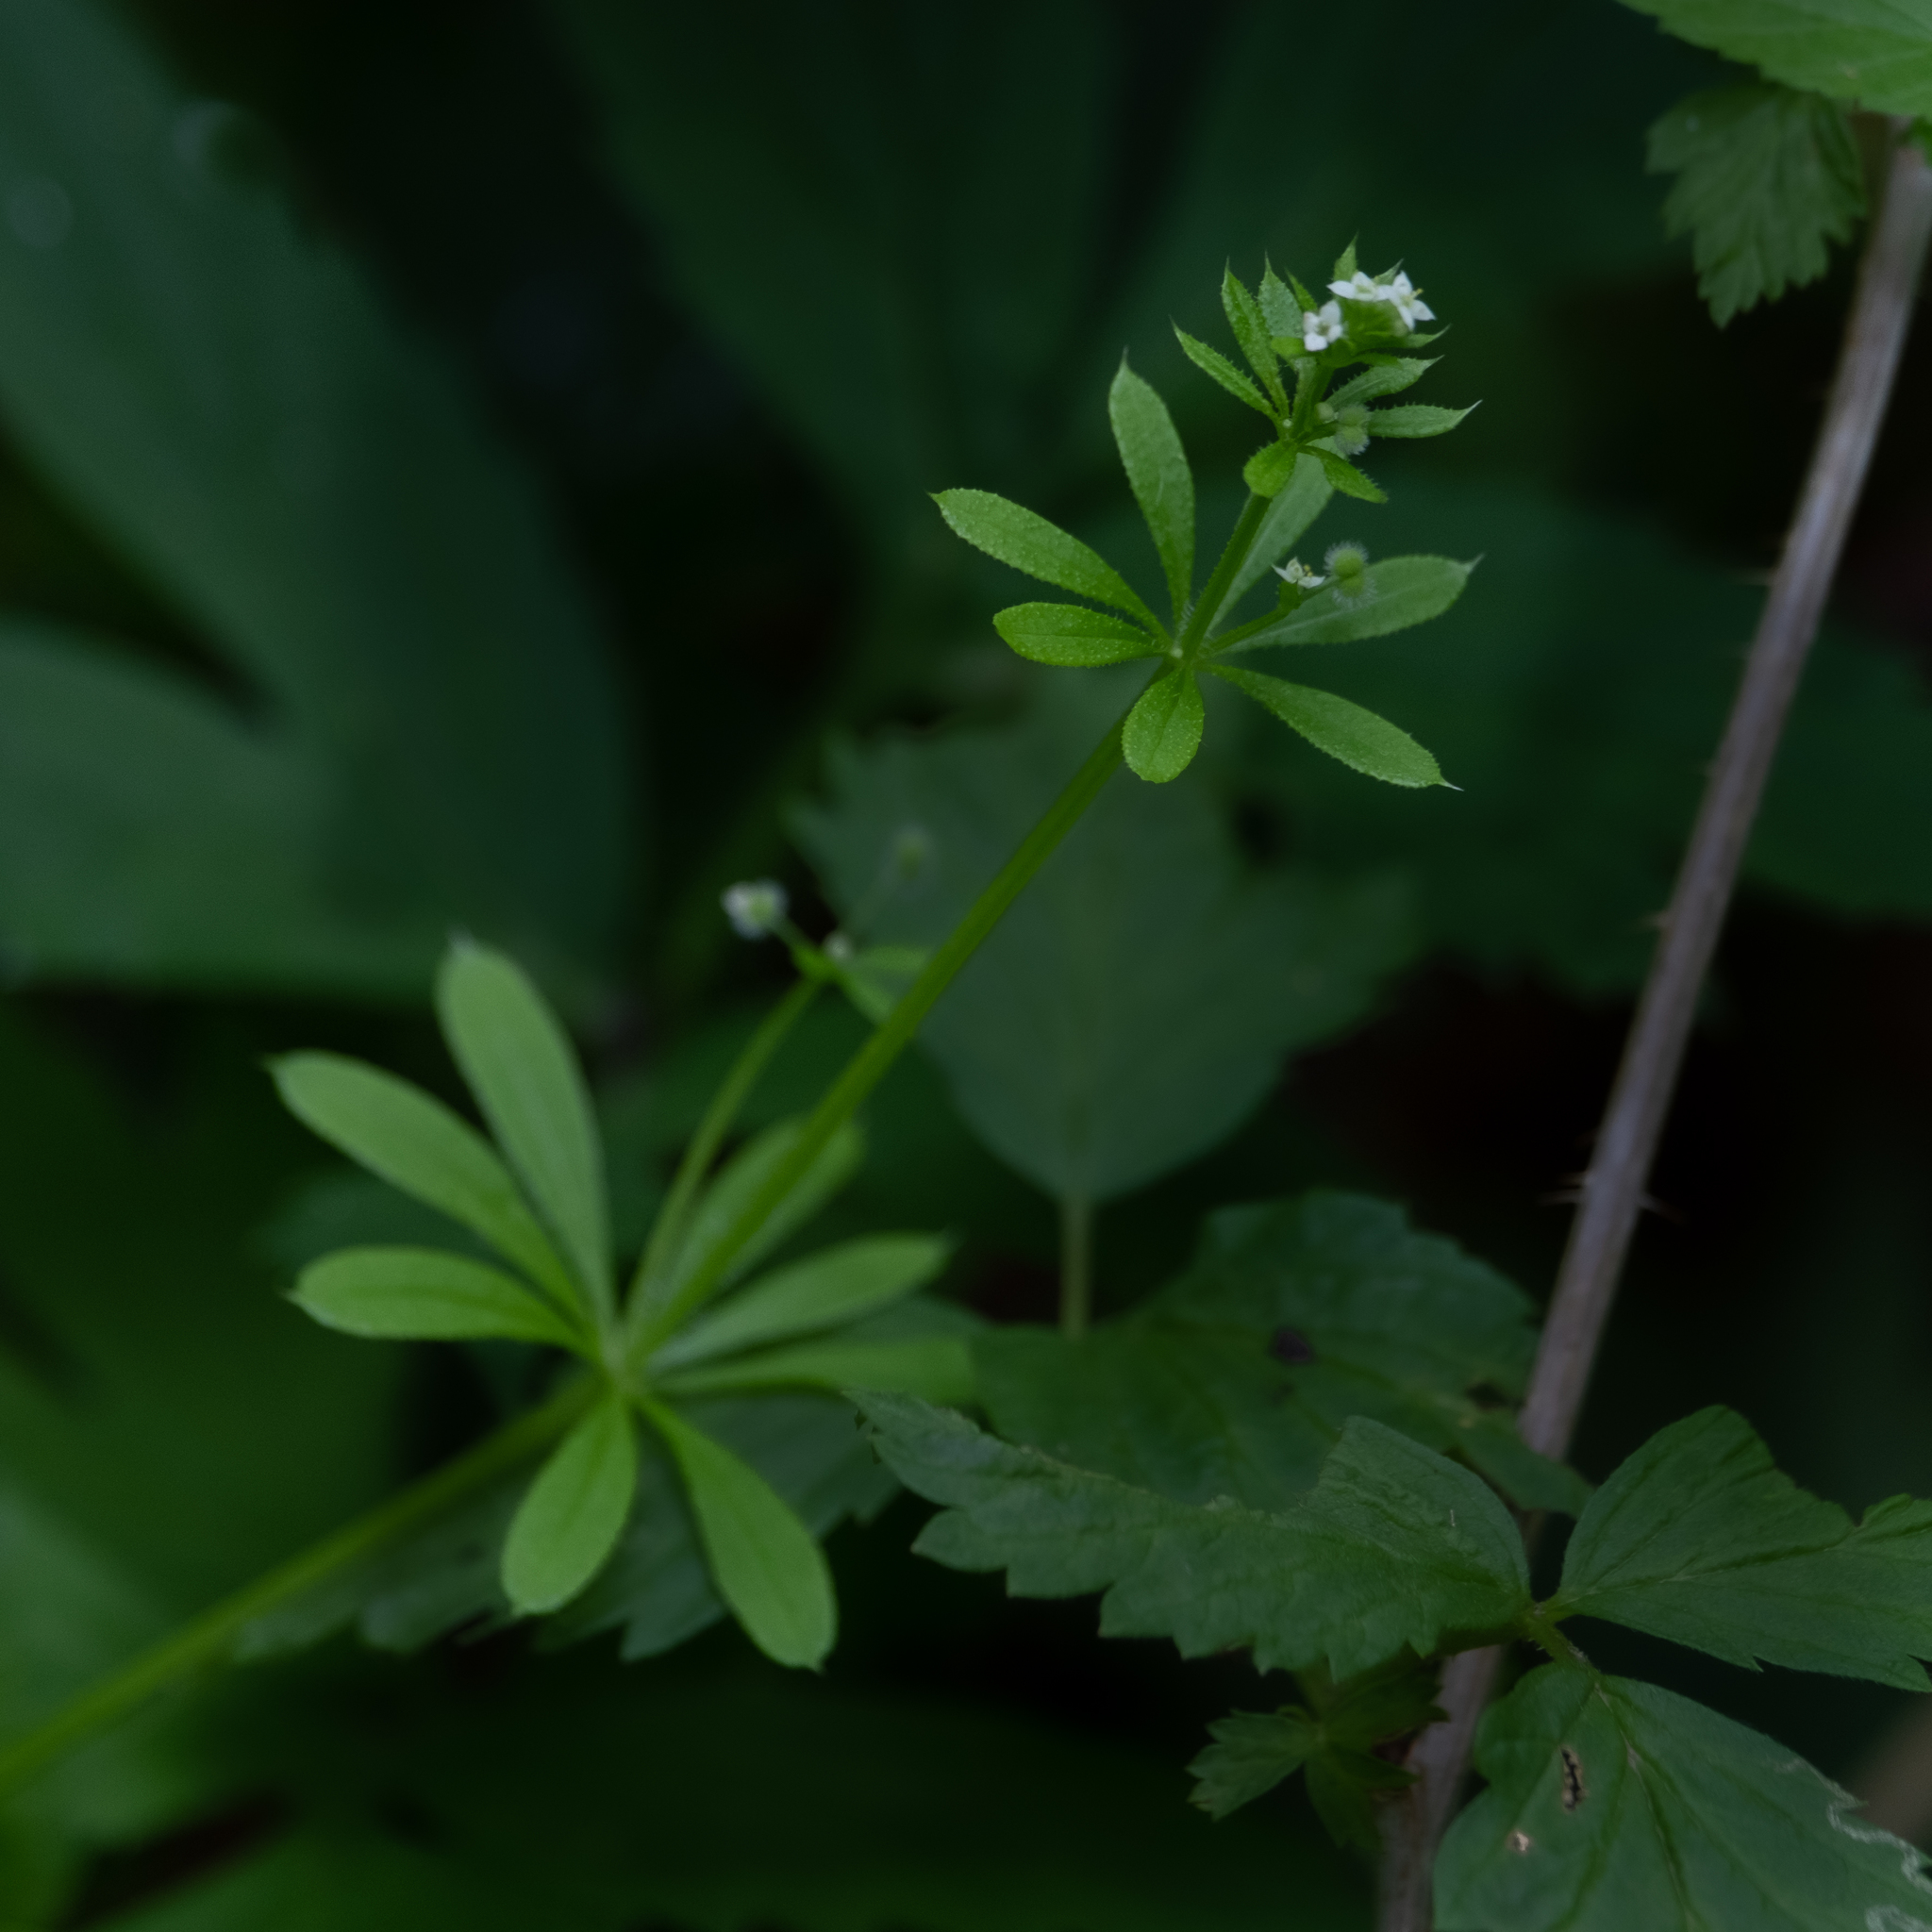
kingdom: Plantae
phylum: Tracheophyta
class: Magnoliopsida
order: Gentianales
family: Rubiaceae
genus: Galium
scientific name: Galium aparine
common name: Cleavers
